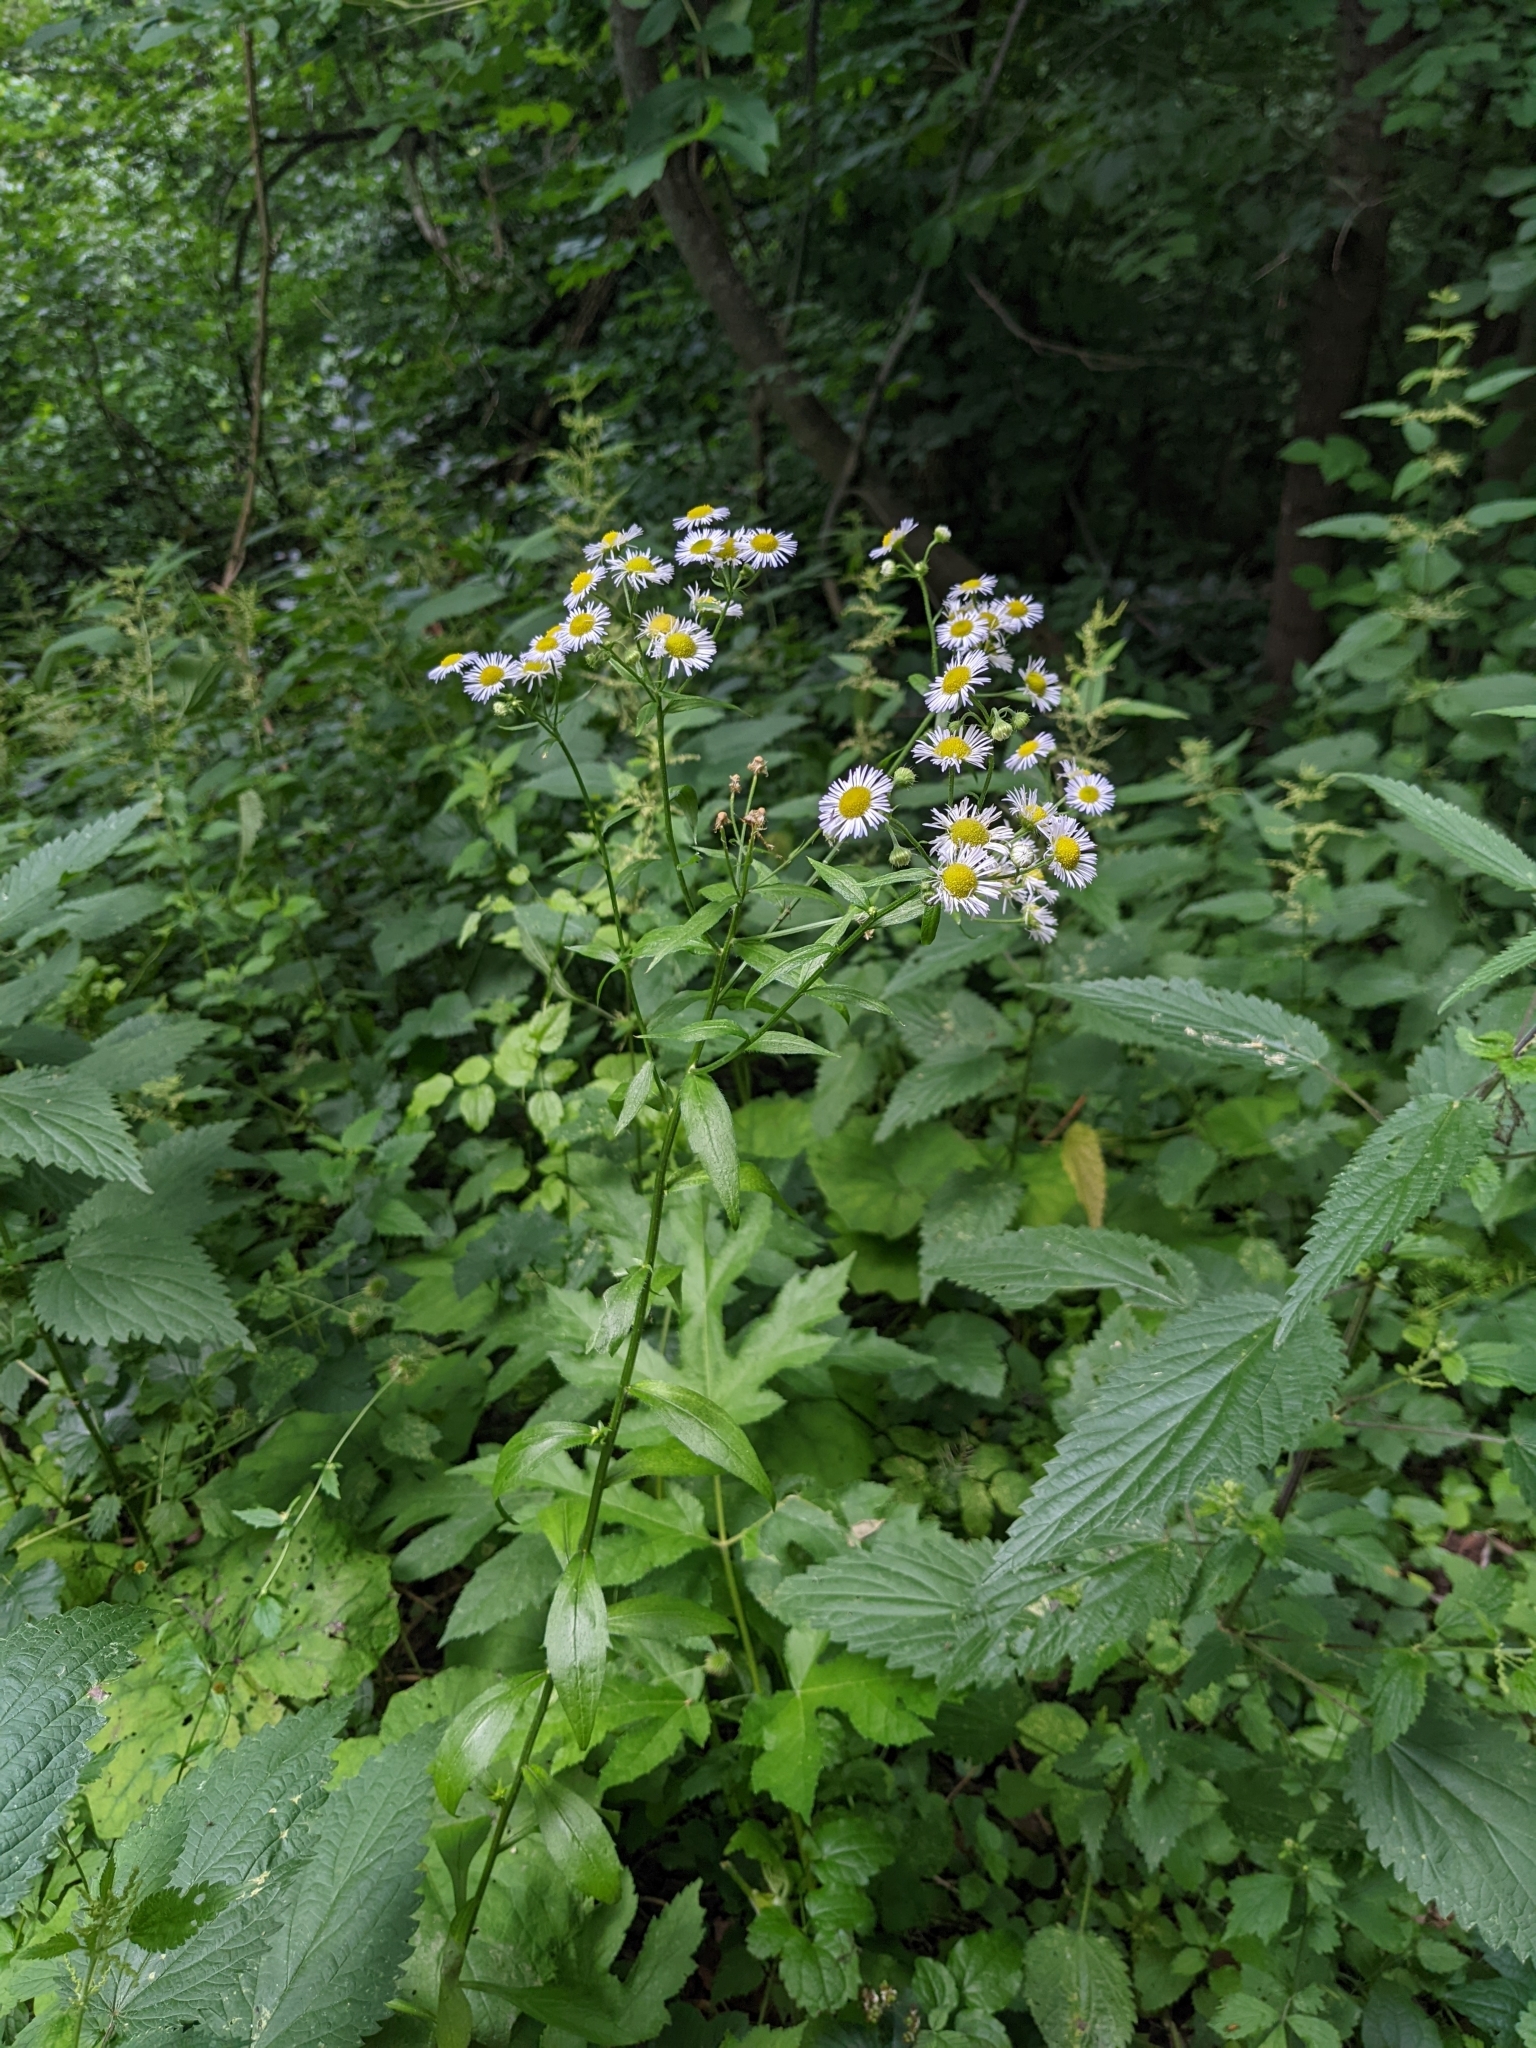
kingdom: Plantae
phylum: Tracheophyta
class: Magnoliopsida
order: Asterales
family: Asteraceae
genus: Erigeron
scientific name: Erigeron annuus
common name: Tall fleabane
